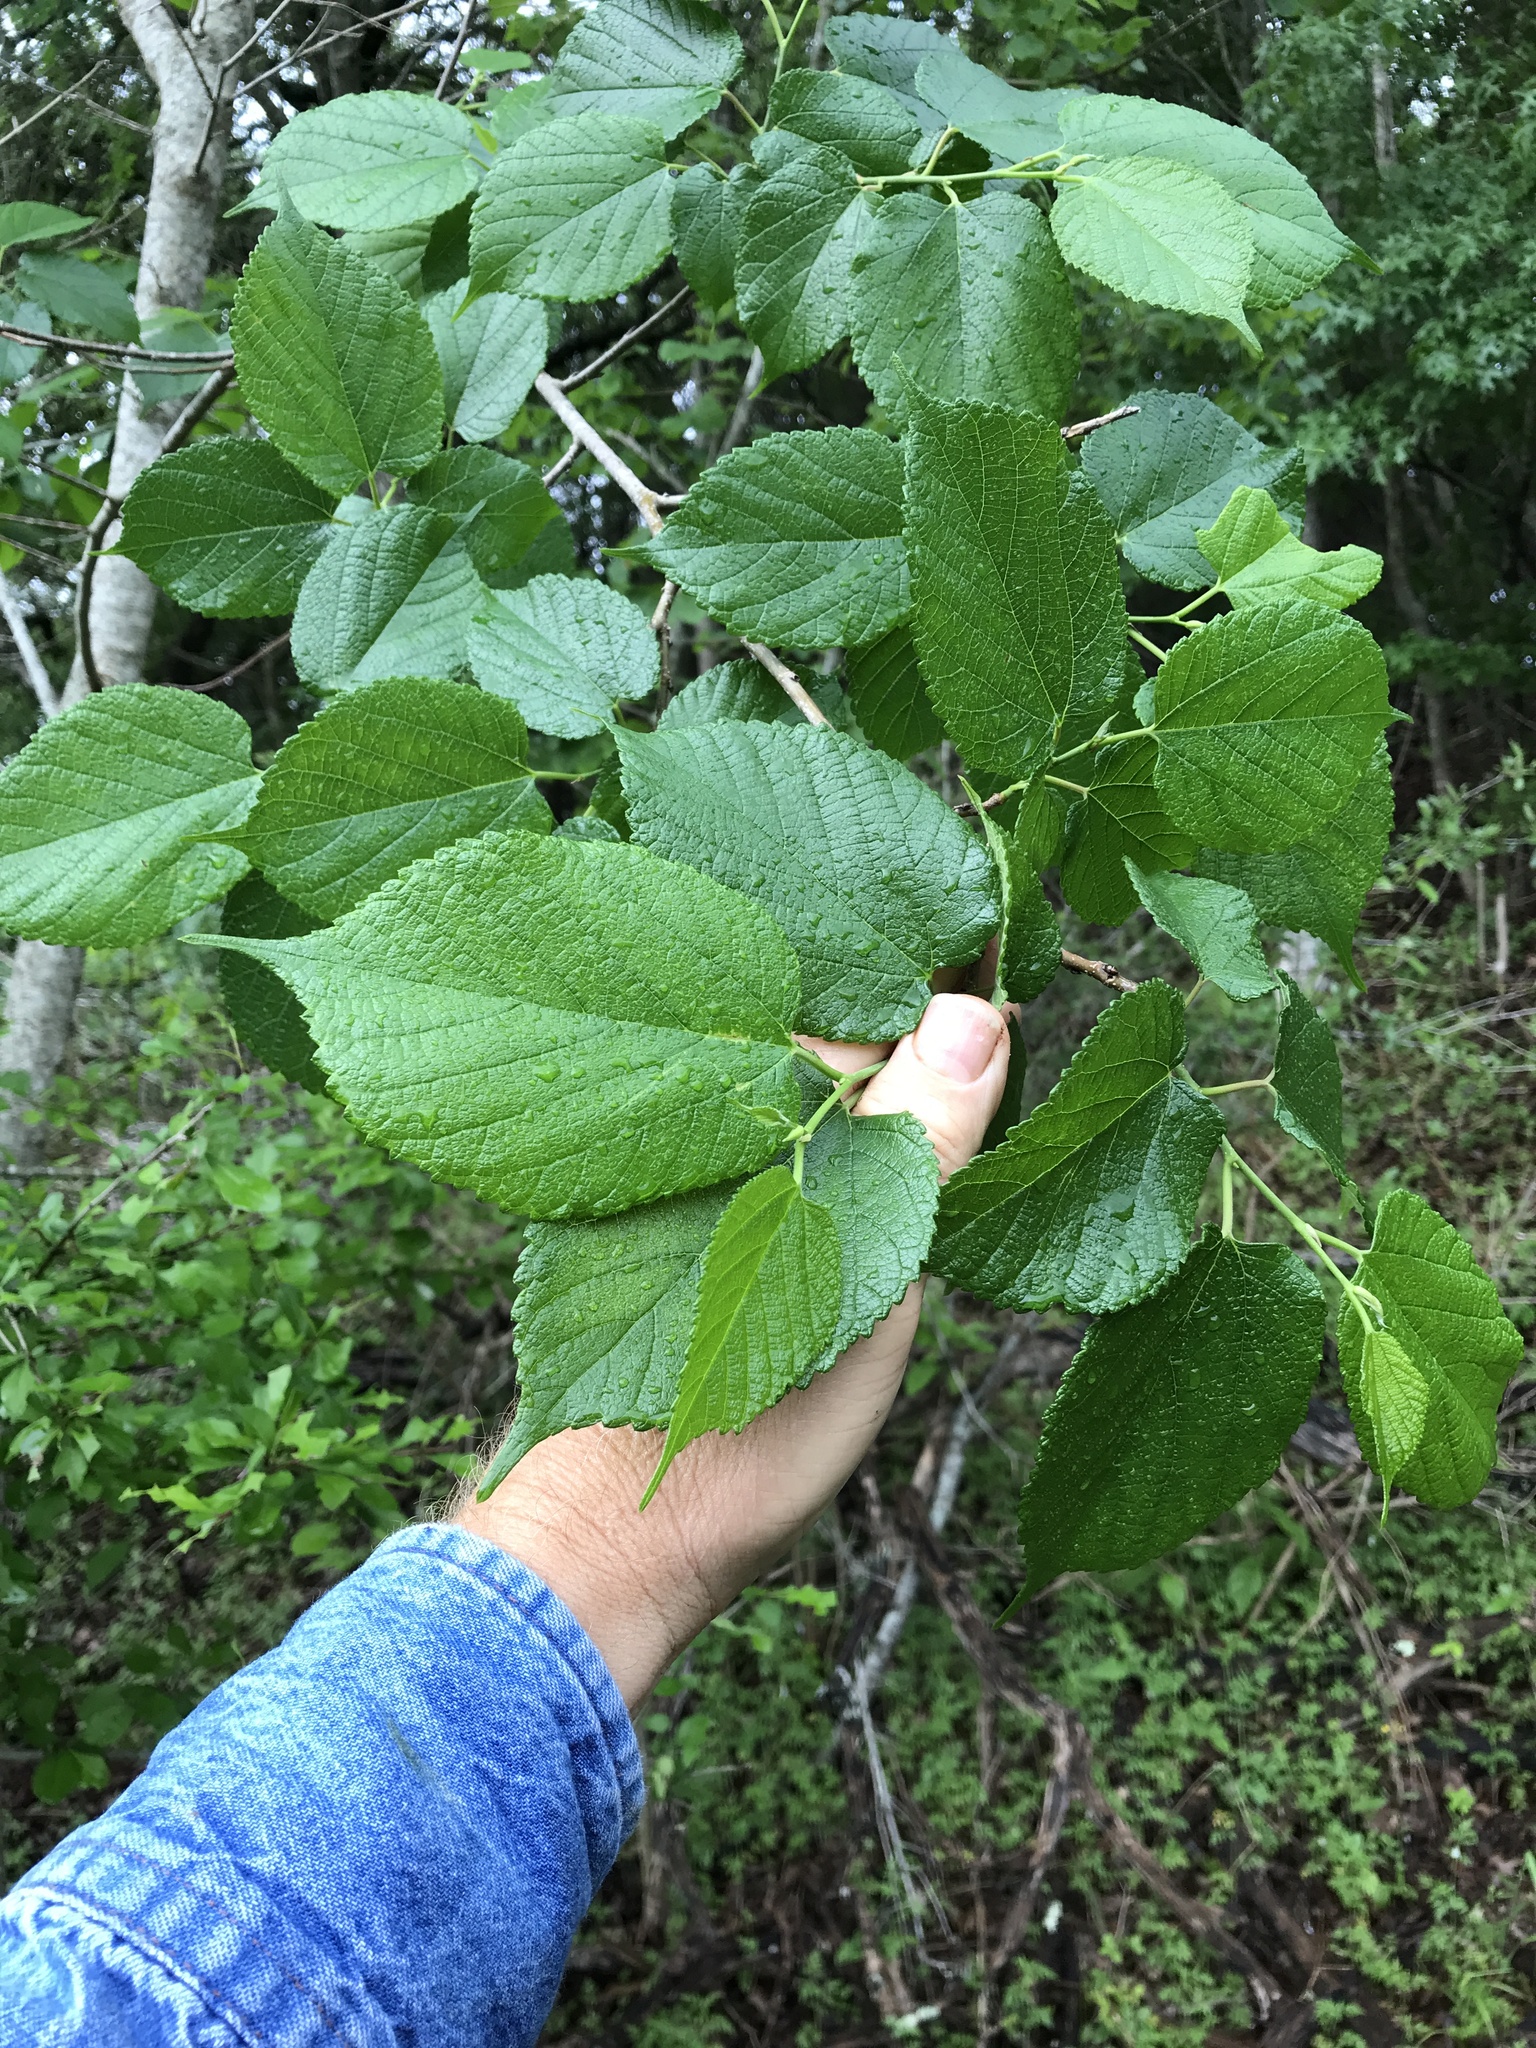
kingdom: Plantae
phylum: Tracheophyta
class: Magnoliopsida
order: Rosales
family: Moraceae
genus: Morus
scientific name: Morus rubra
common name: Red mulberry
